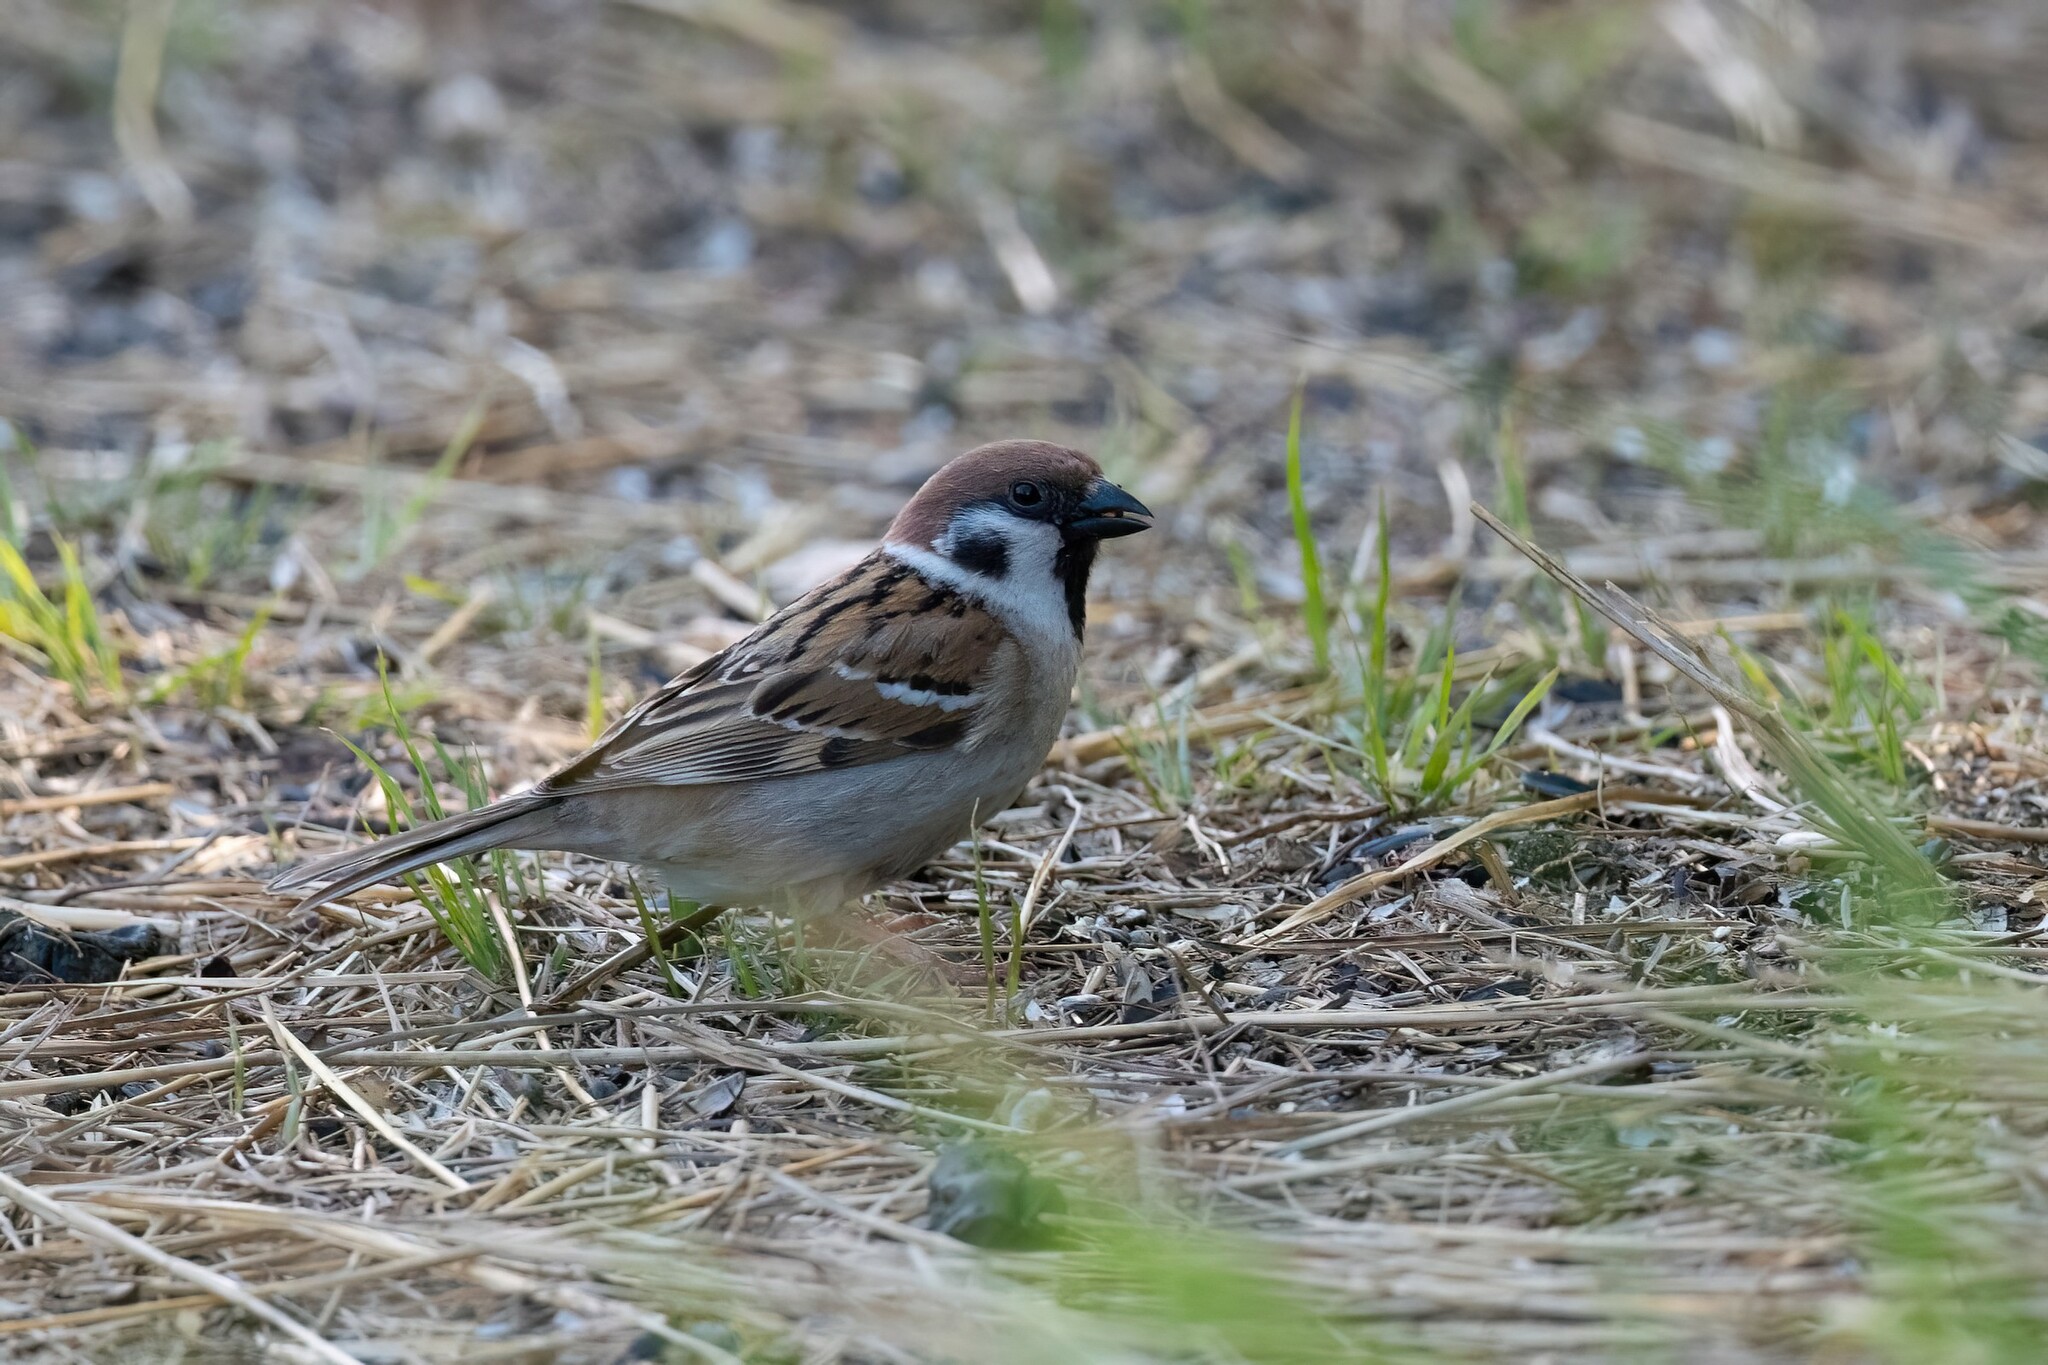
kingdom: Animalia
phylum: Chordata
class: Aves
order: Passeriformes
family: Passeridae
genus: Passer
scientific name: Passer montanus
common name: Eurasian tree sparrow
